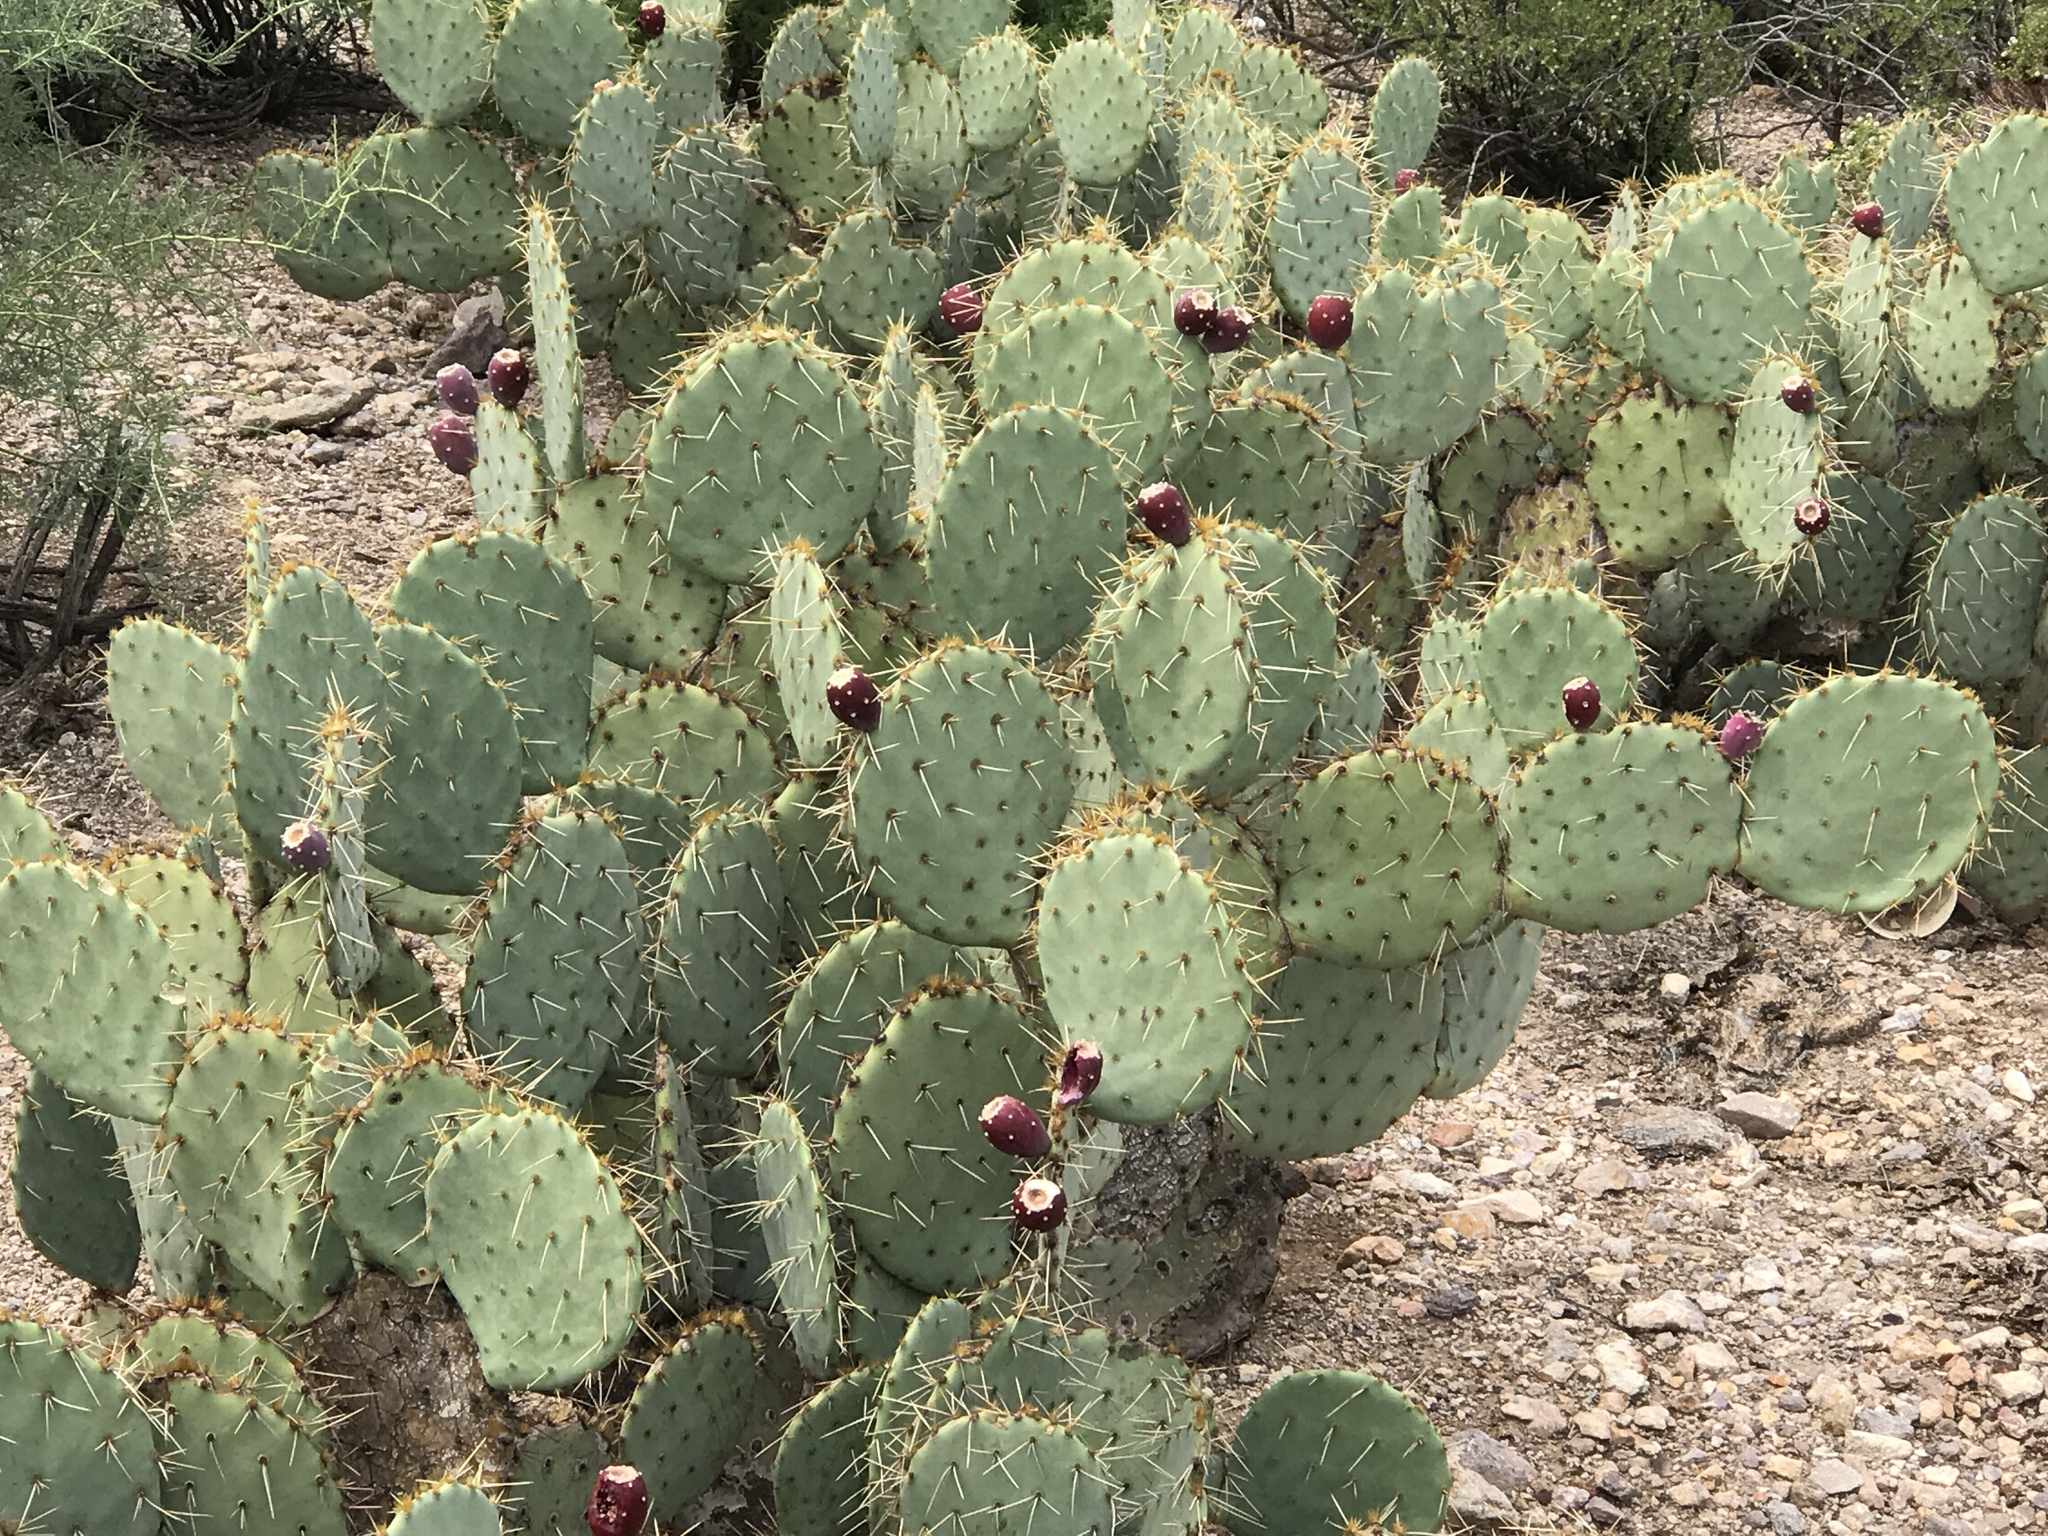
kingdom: Plantae
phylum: Tracheophyta
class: Magnoliopsida
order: Caryophyllales
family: Cactaceae
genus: Opuntia
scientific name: Opuntia engelmannii
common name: Cactus-apple
